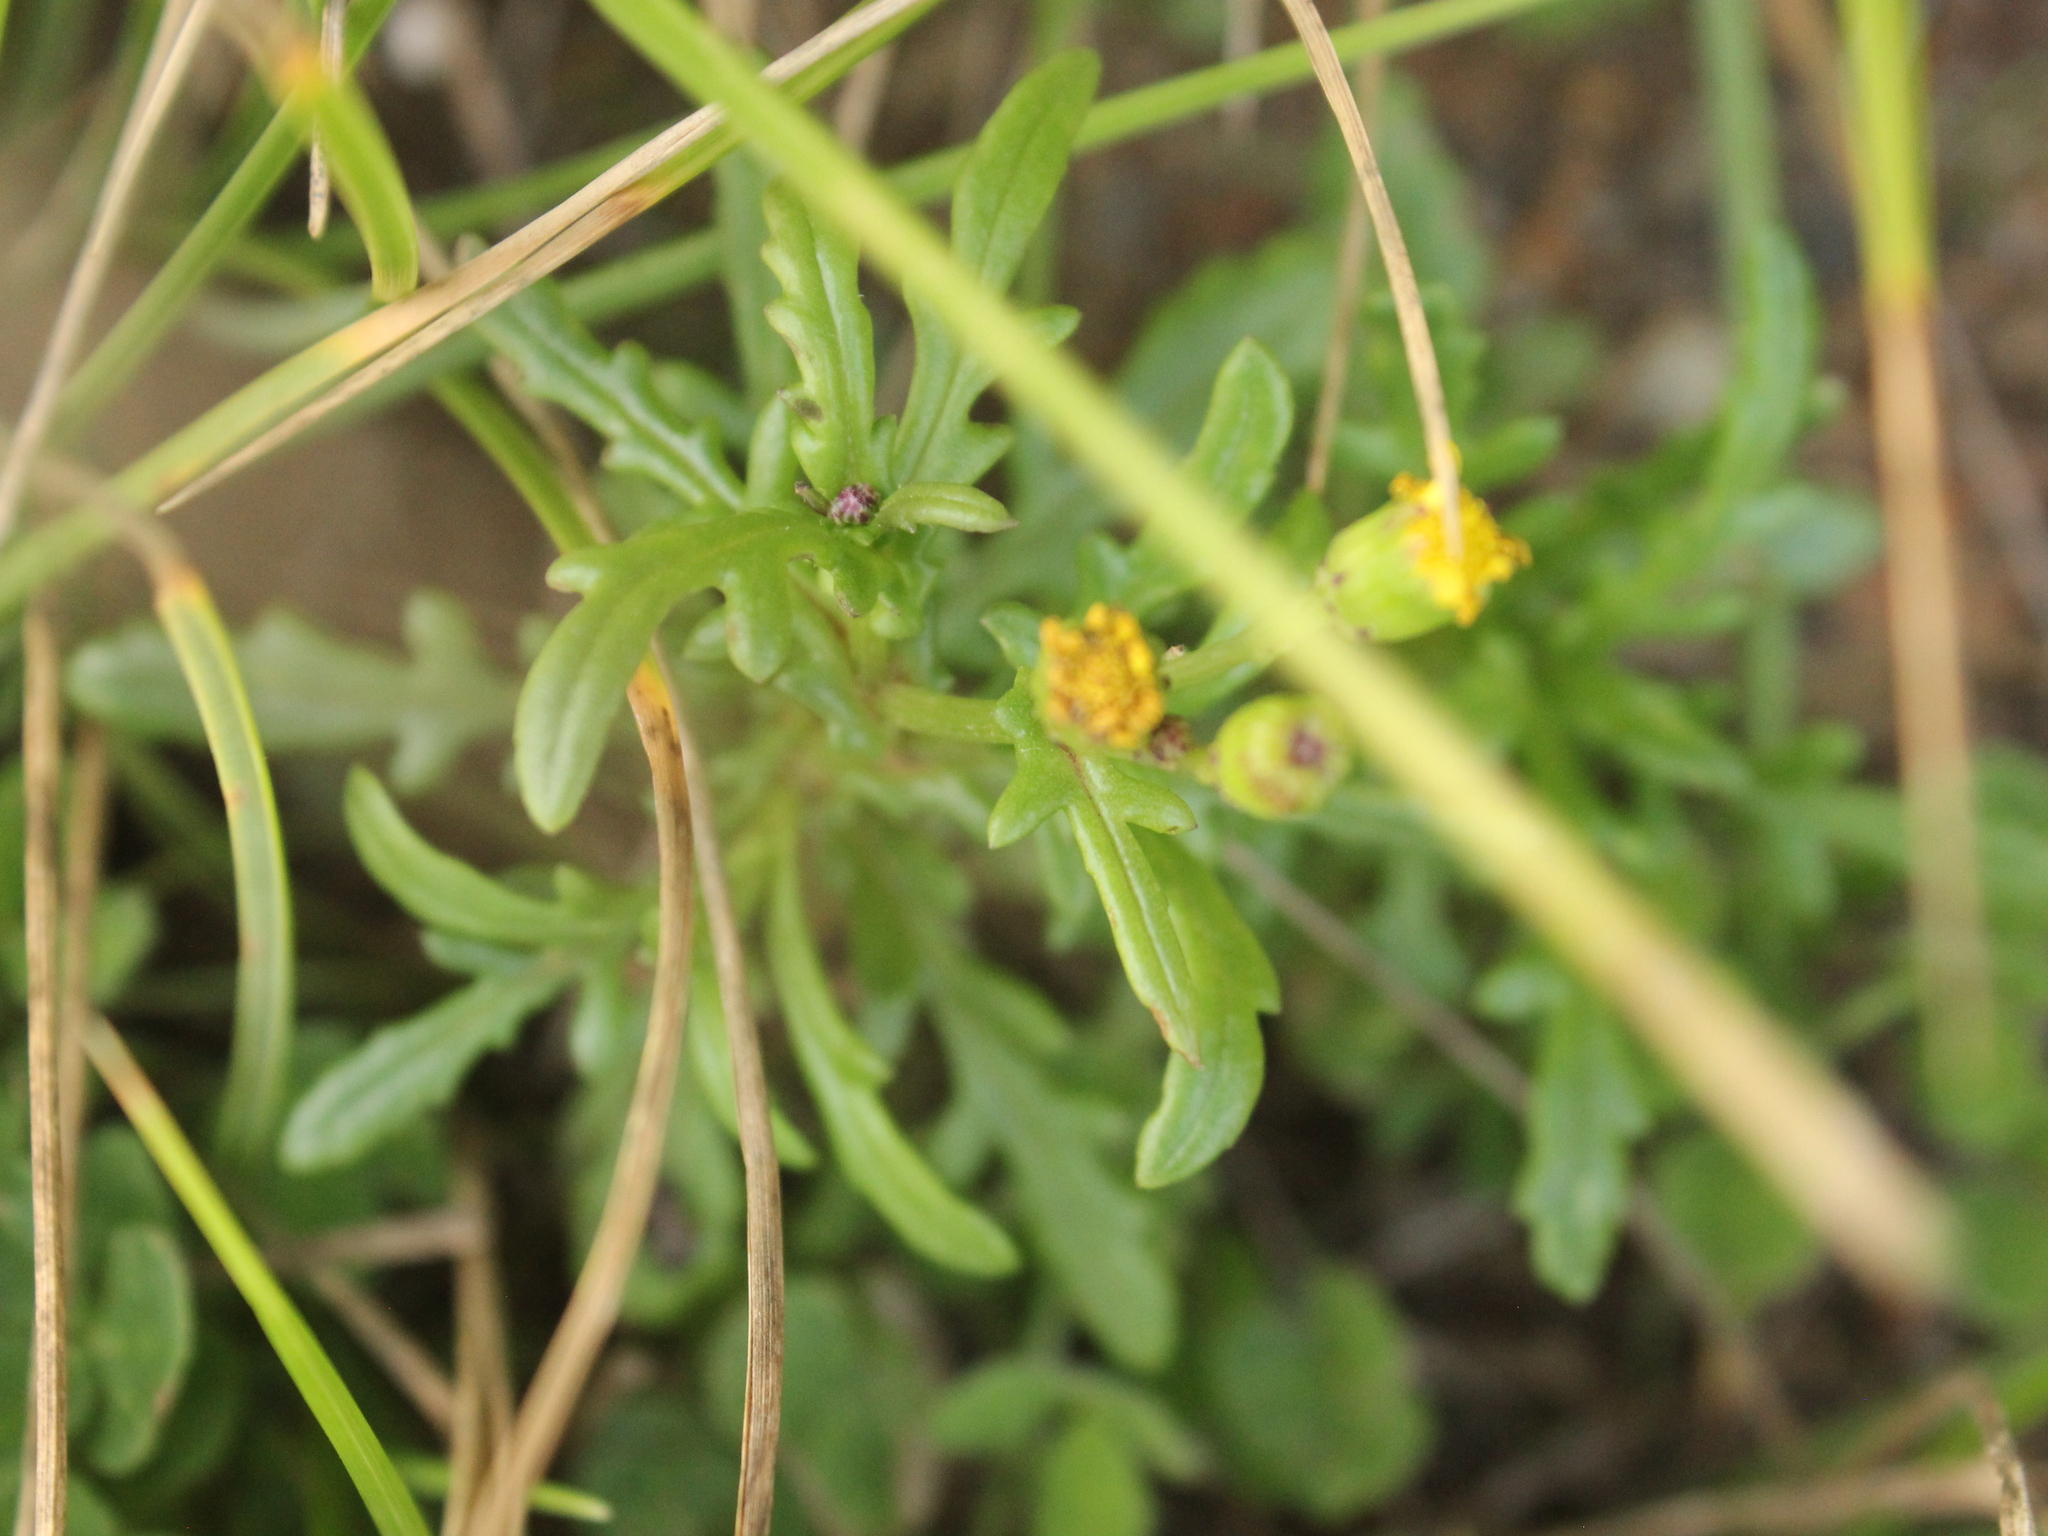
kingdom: Plantae
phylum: Tracheophyta
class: Magnoliopsida
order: Asterales
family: Asteraceae
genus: Senecio
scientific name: Senecio lautus
